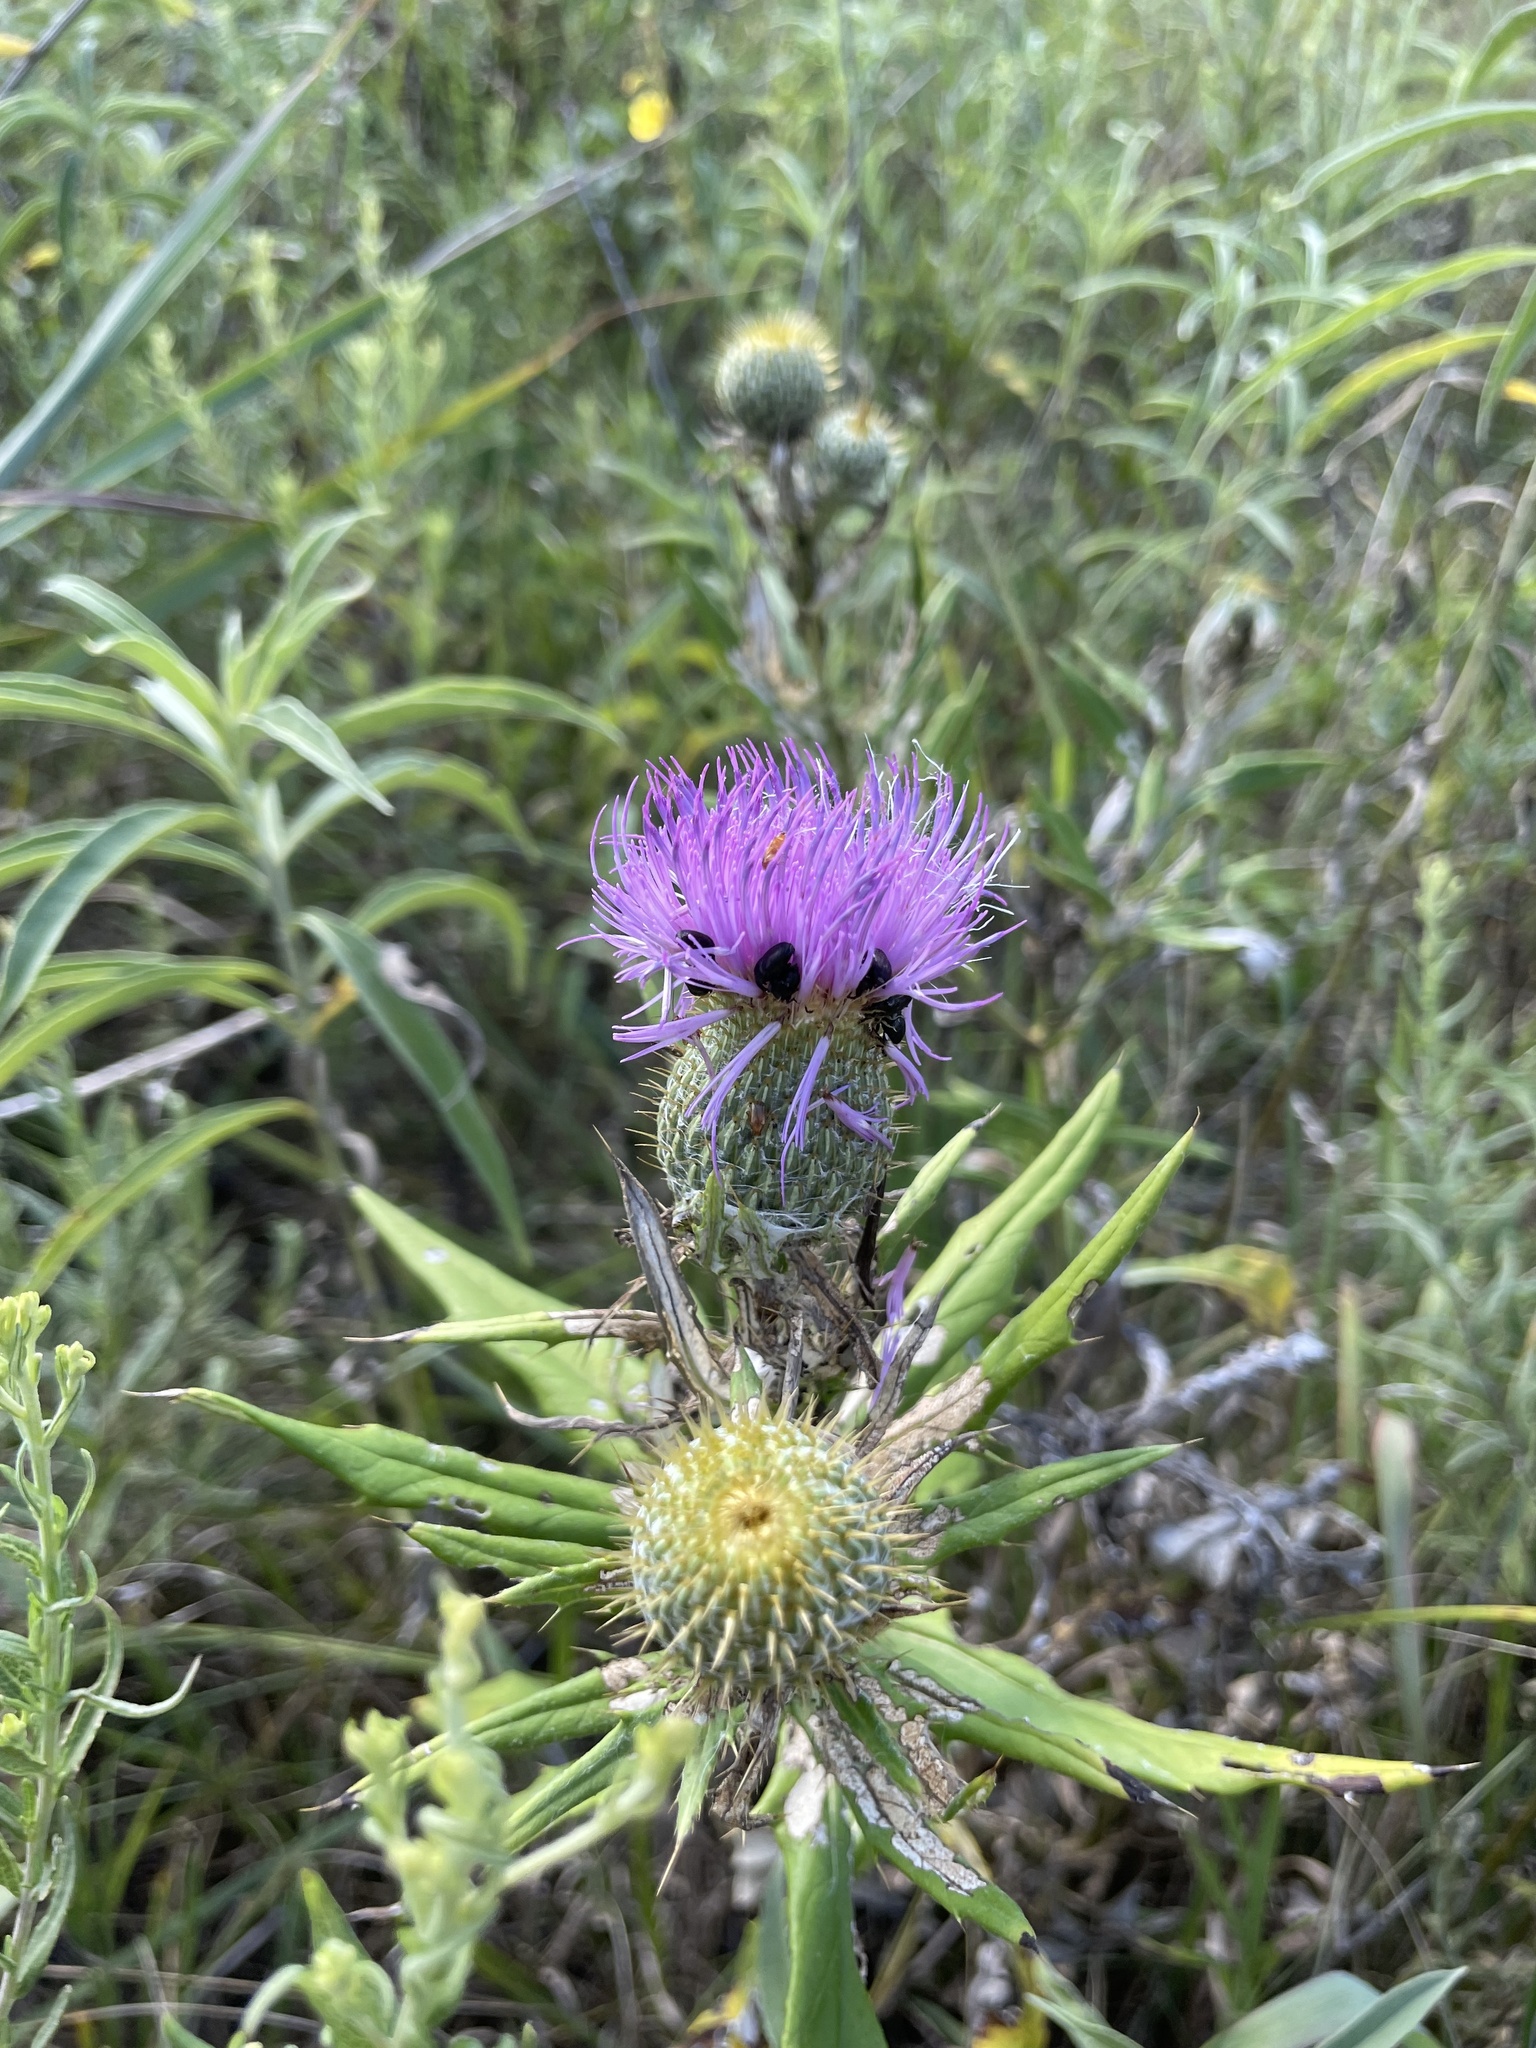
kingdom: Plantae
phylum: Tracheophyta
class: Magnoliopsida
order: Asterales
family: Asteraceae
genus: Cirsium
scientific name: Cirsium altissimum
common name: Roadside thistle
